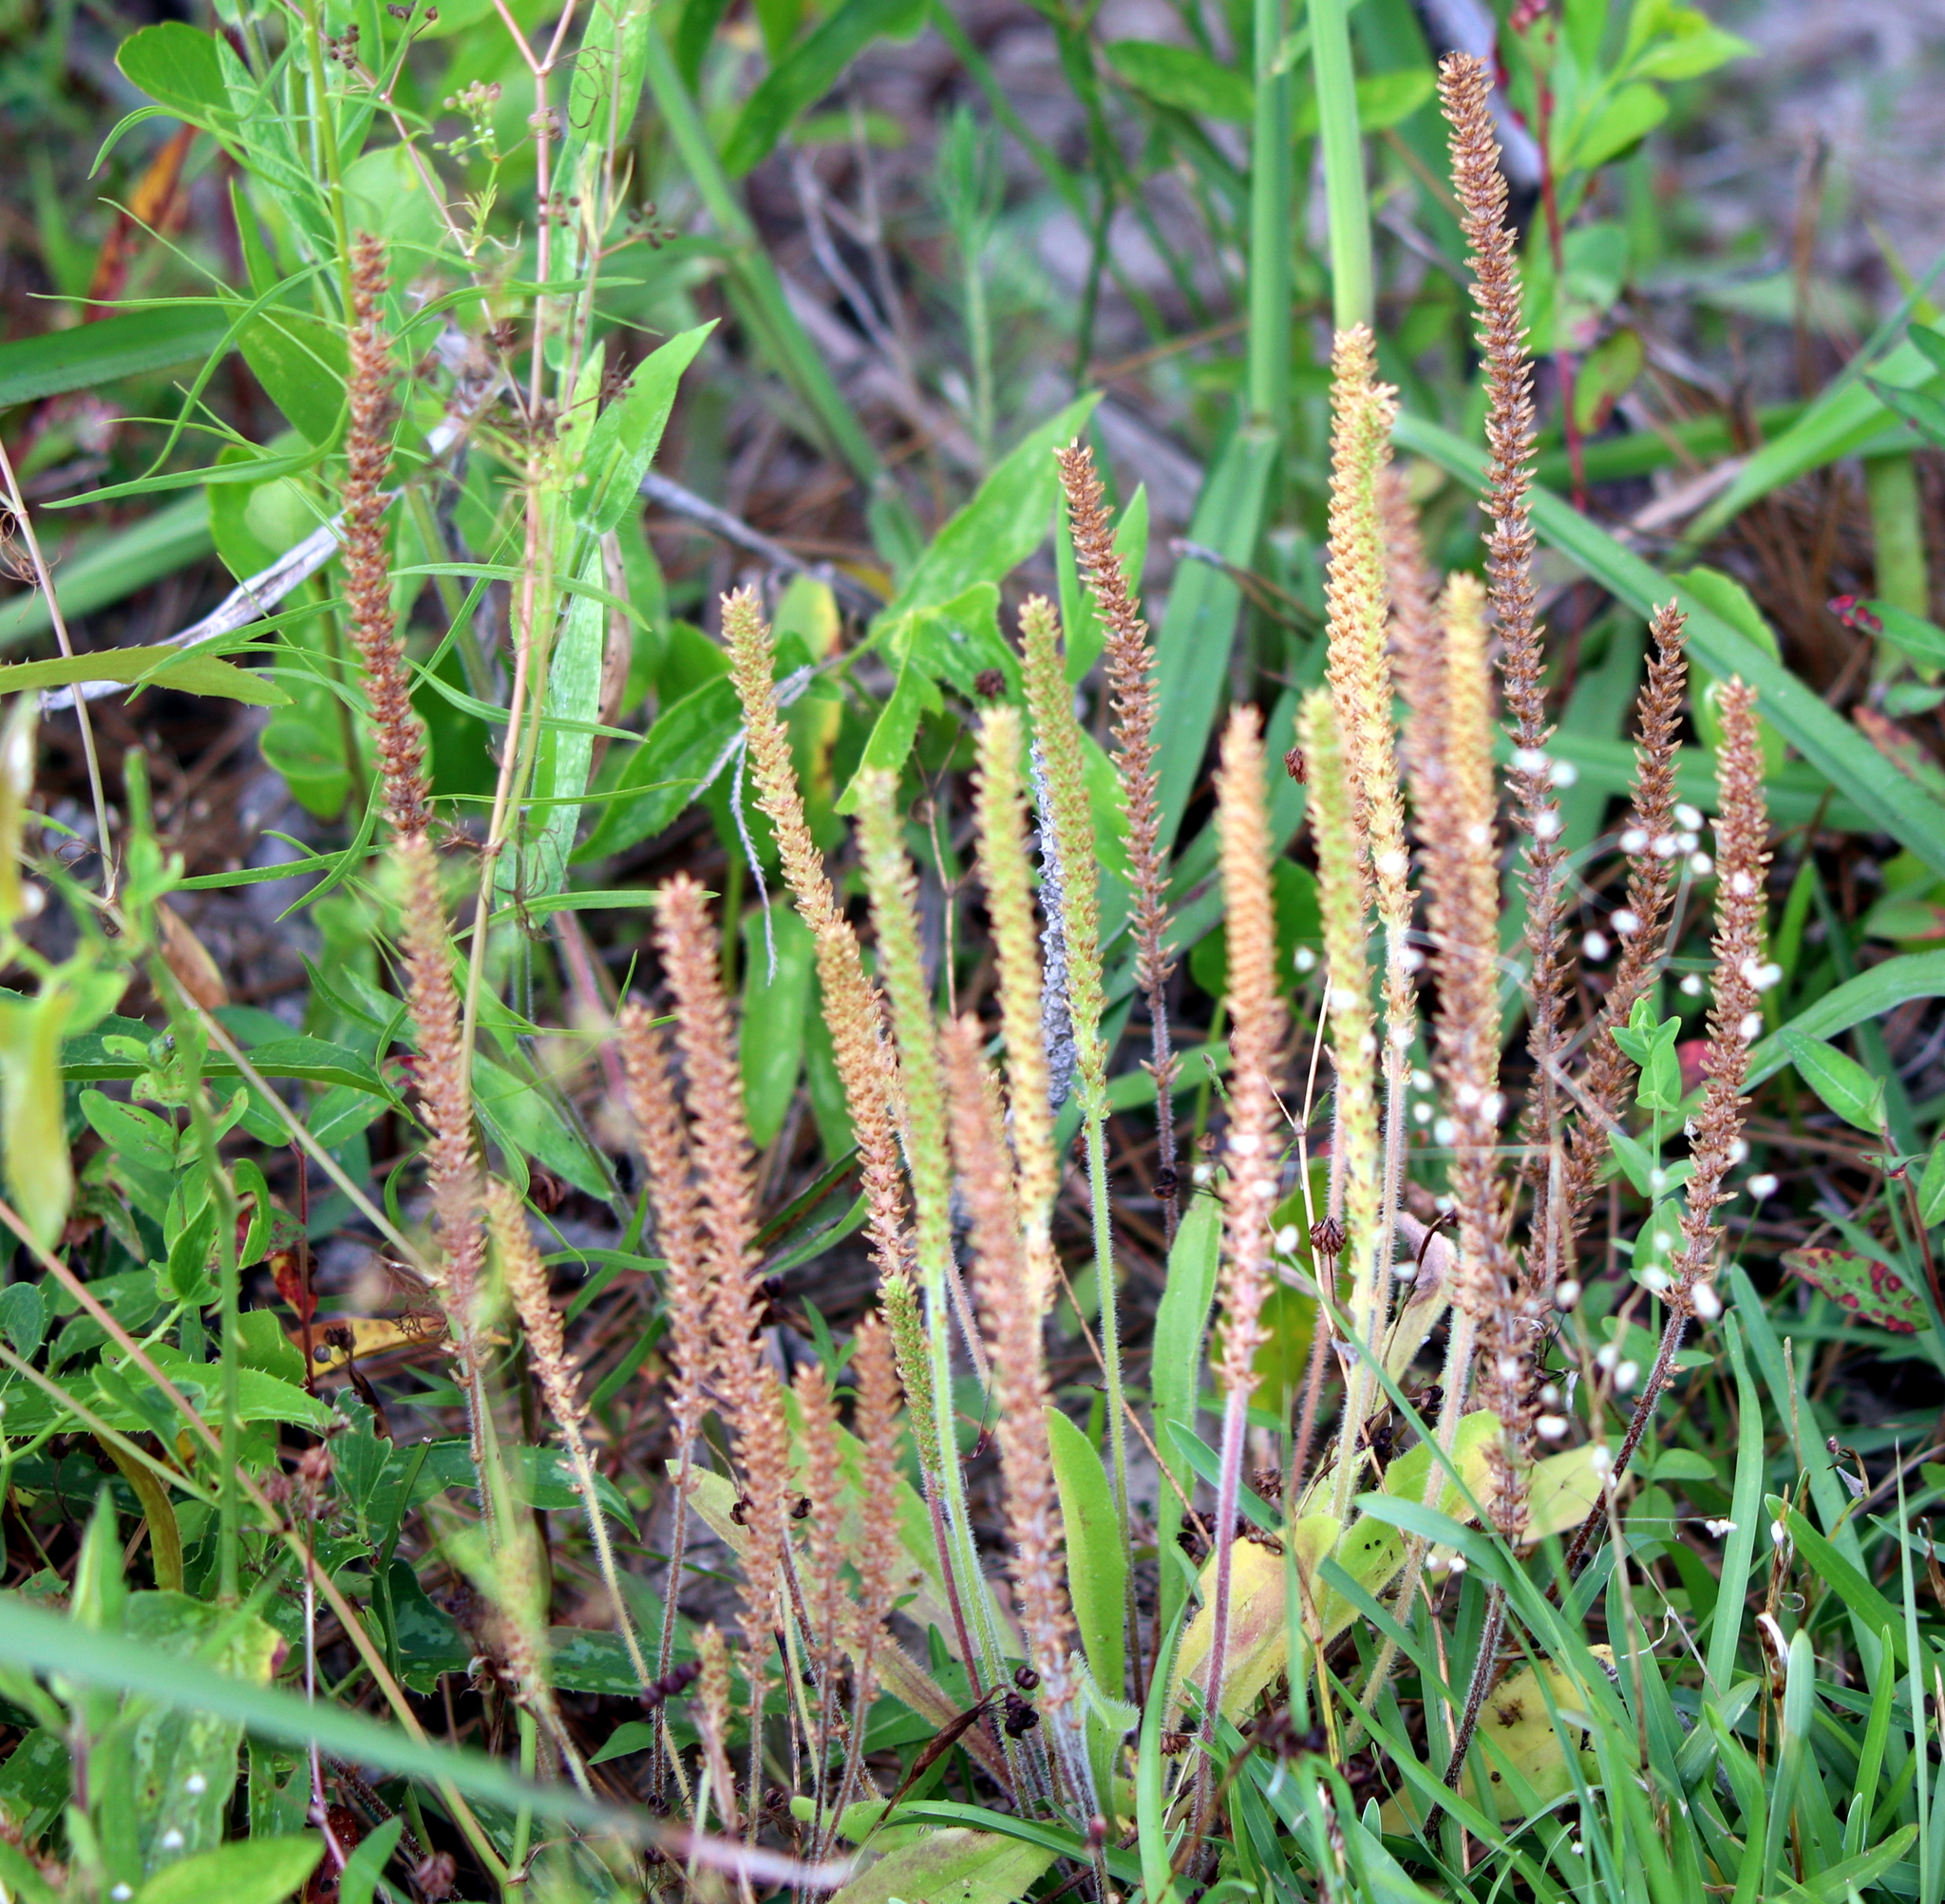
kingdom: Plantae
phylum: Tracheophyta
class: Magnoliopsida
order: Lamiales
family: Plantaginaceae
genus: Plantago
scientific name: Plantago virginica
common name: Hoary plantain
